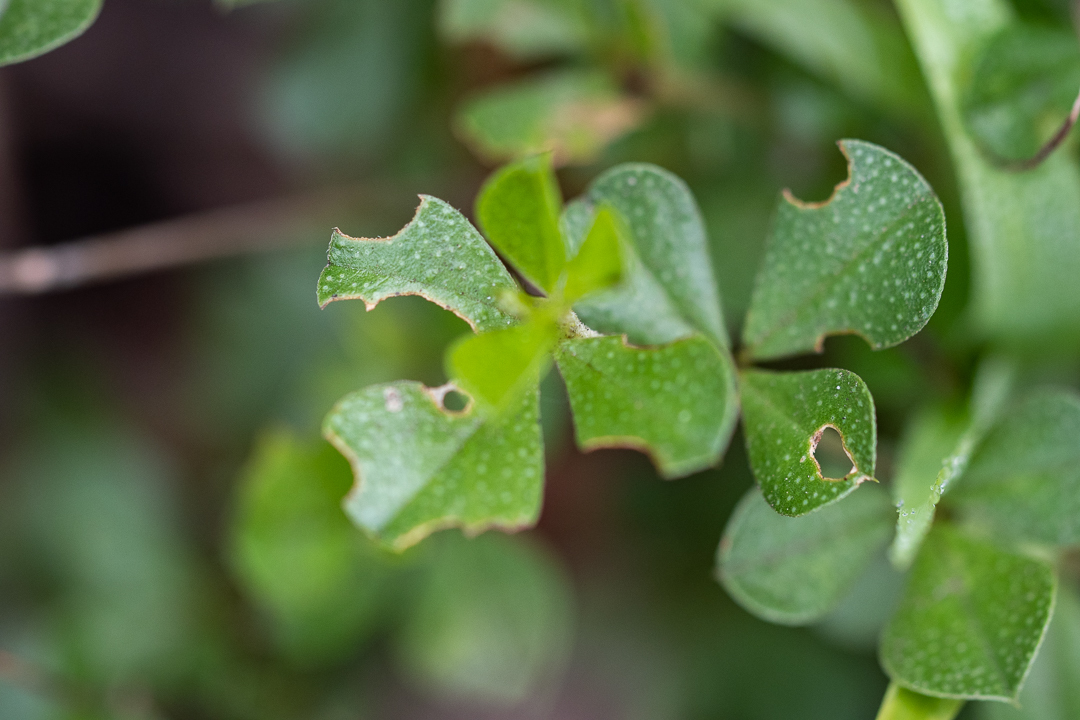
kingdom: Plantae
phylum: Tracheophyta
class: Magnoliopsida
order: Fabales
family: Fabaceae
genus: Psoralea
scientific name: Psoralea bracteolata
